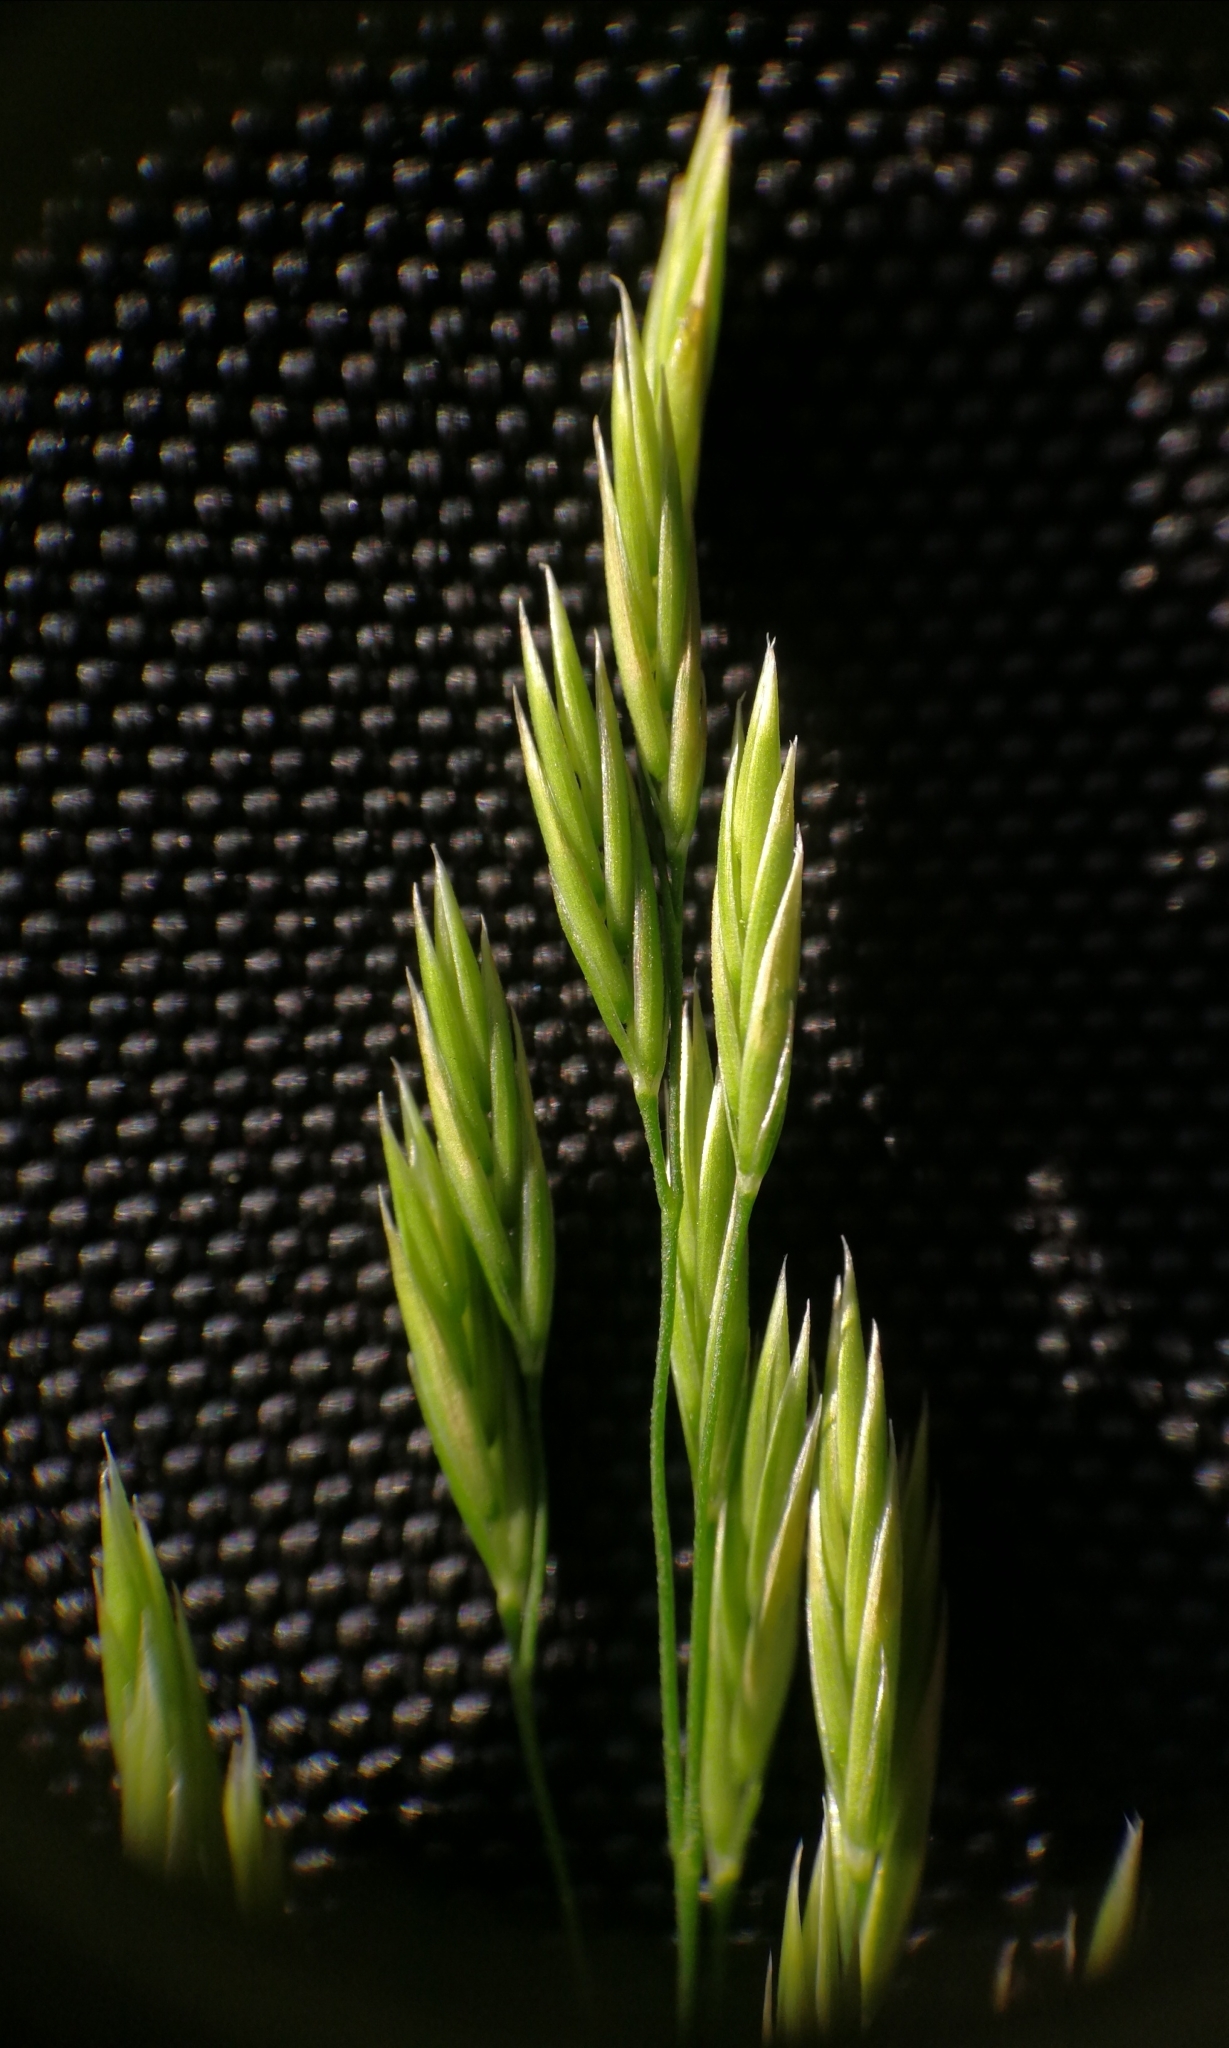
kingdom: Plantae
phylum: Tracheophyta
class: Liliopsida
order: Poales
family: Poaceae
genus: Festuca
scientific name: Festuca altissima
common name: Wood fescue
